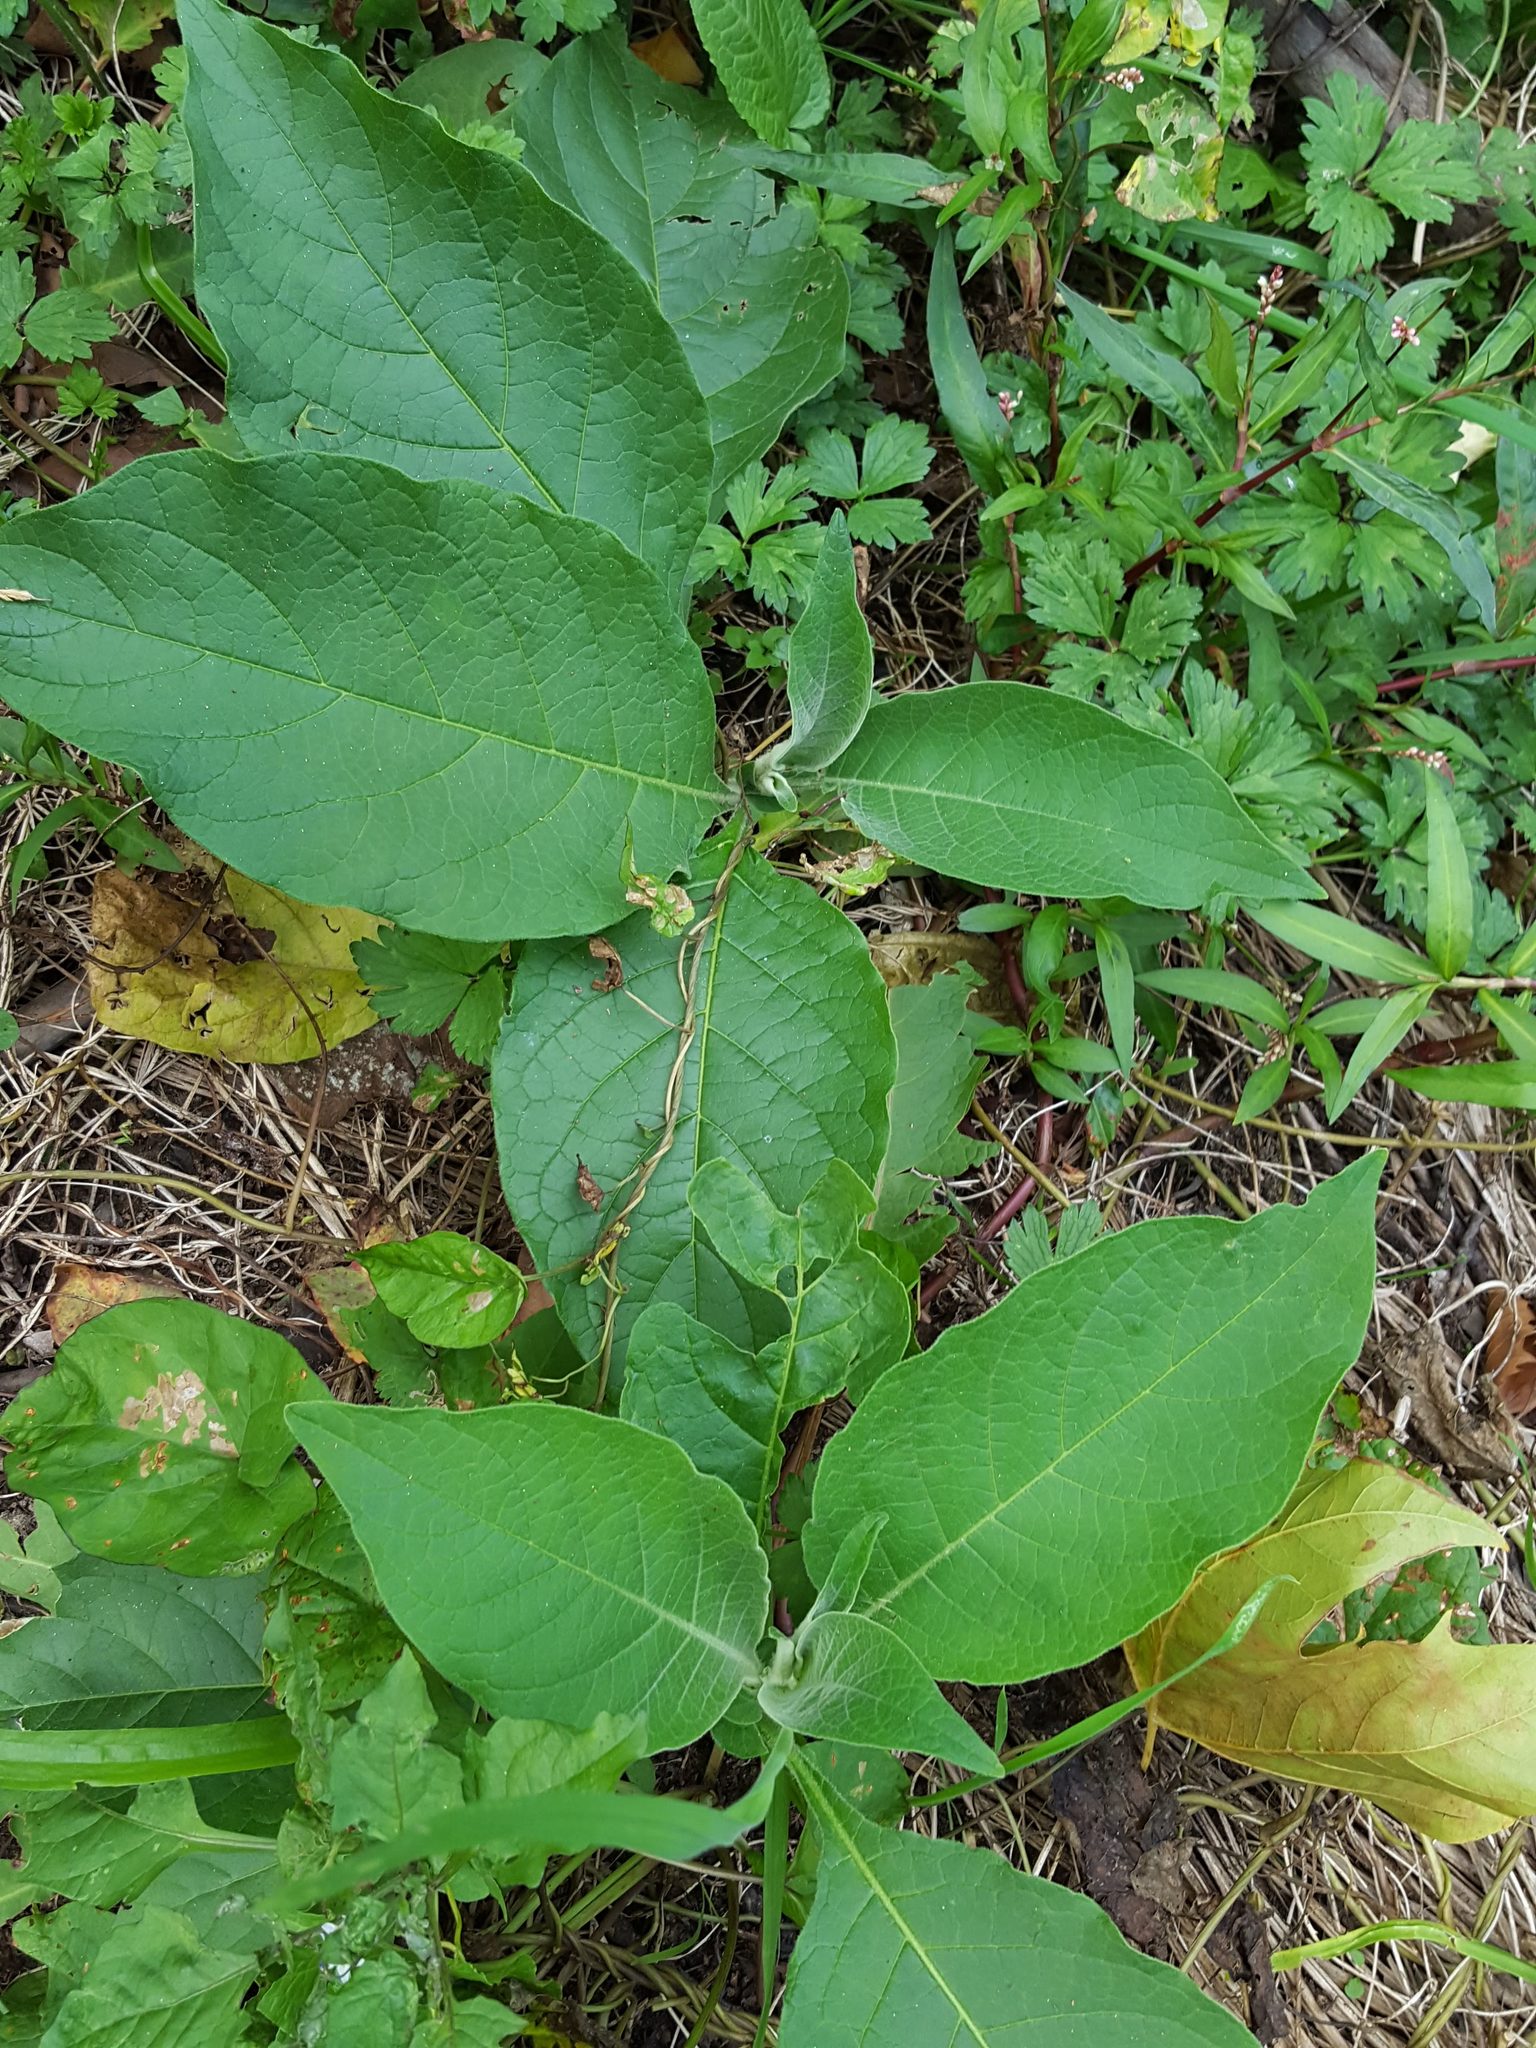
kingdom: Plantae
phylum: Tracheophyta
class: Magnoliopsida
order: Solanales
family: Solanaceae
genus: Solanum
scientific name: Solanum mauritianum
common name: Earleaf nightshade
